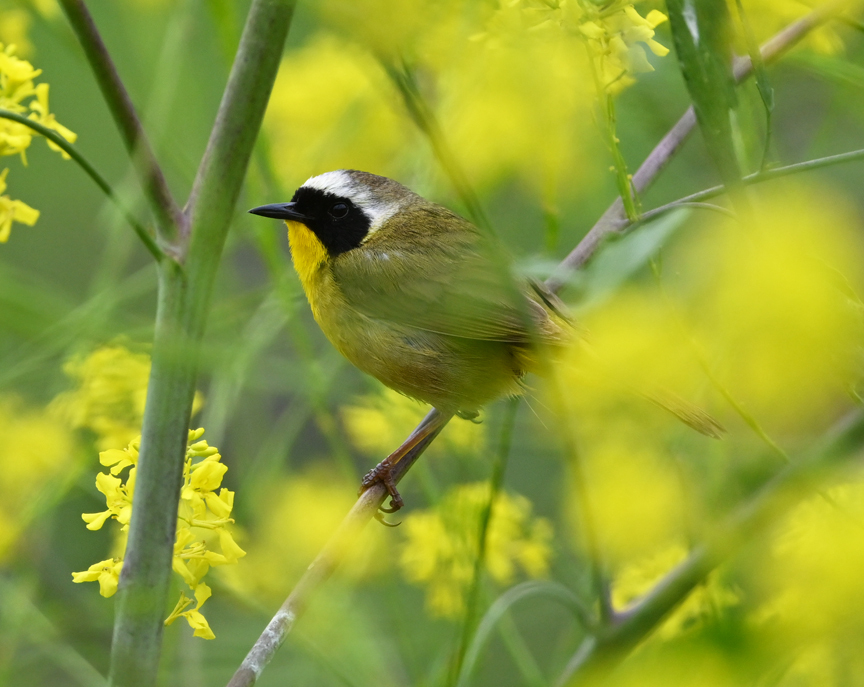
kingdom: Animalia
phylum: Chordata
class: Aves
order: Passeriformes
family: Parulidae
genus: Geothlypis
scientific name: Geothlypis trichas
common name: Common yellowthroat
